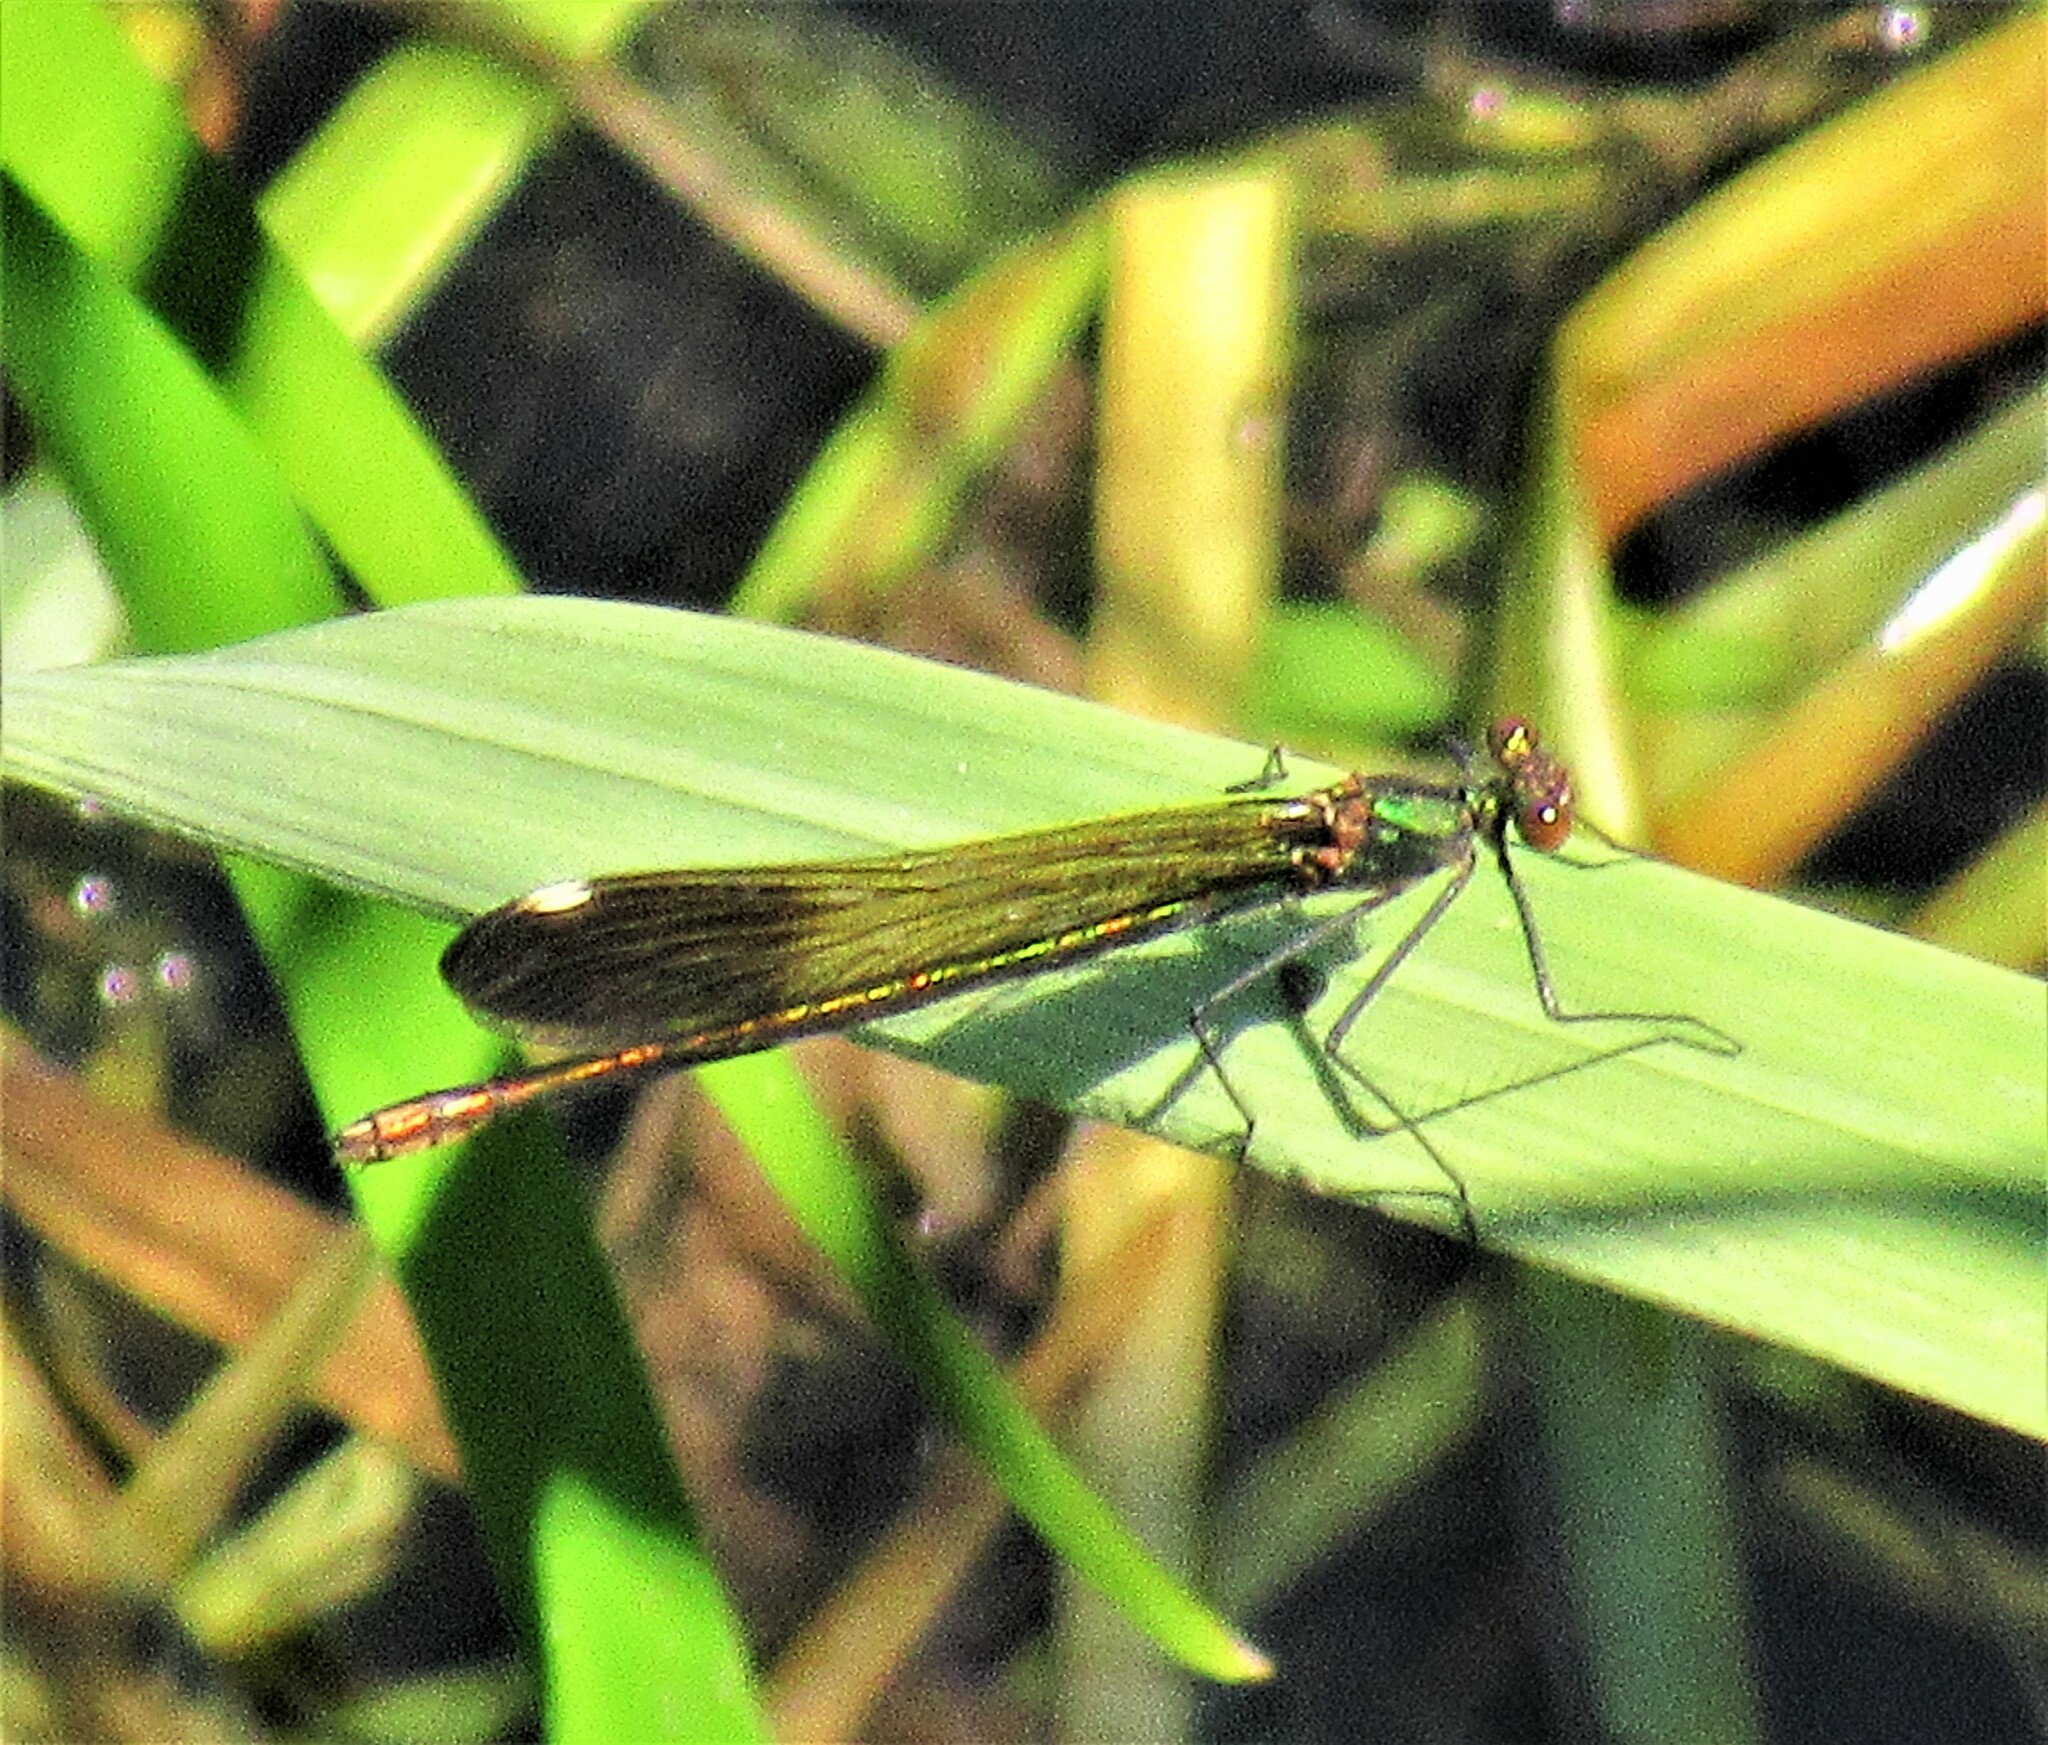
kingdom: Animalia
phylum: Arthropoda
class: Insecta
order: Odonata
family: Calopterygidae
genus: Calopteryx
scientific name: Calopteryx aequabilis
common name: River jewelwing
